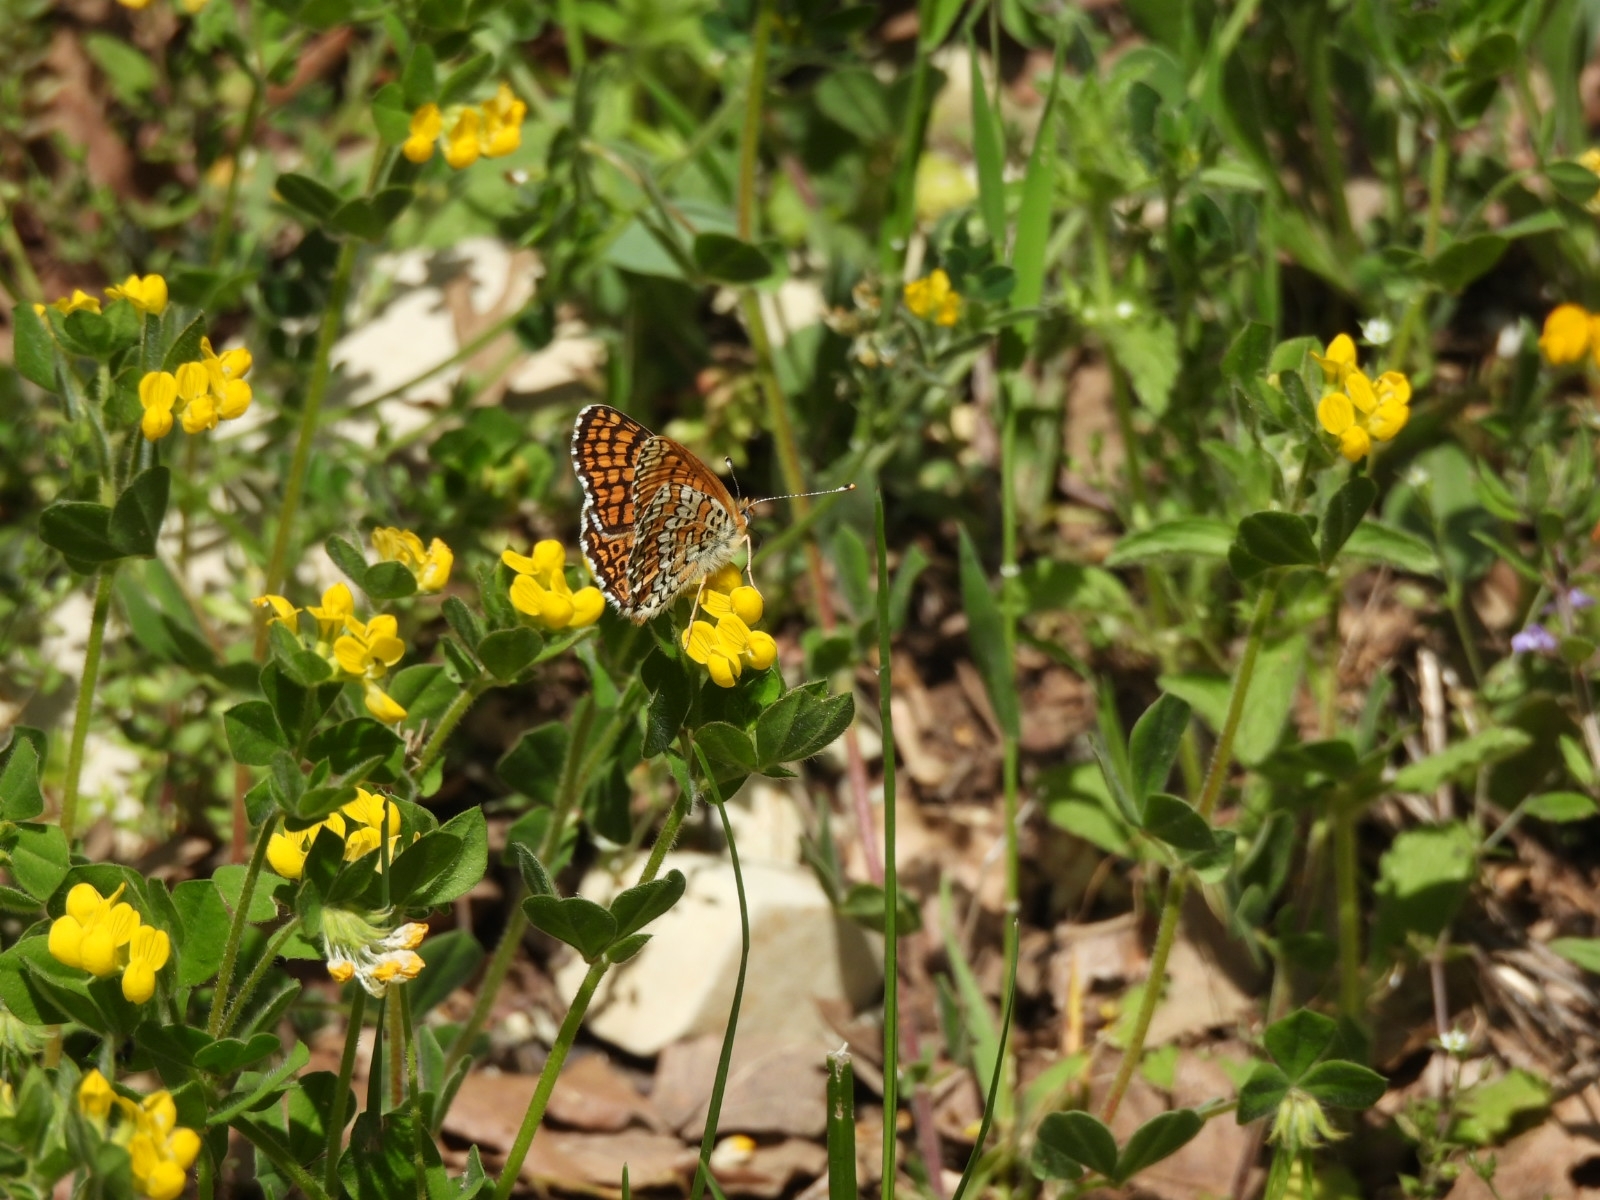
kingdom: Animalia
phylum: Arthropoda
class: Insecta
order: Lepidoptera
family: Nymphalidae
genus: Melitaea
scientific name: Melitaea cinxia
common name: Glanville fritillary
